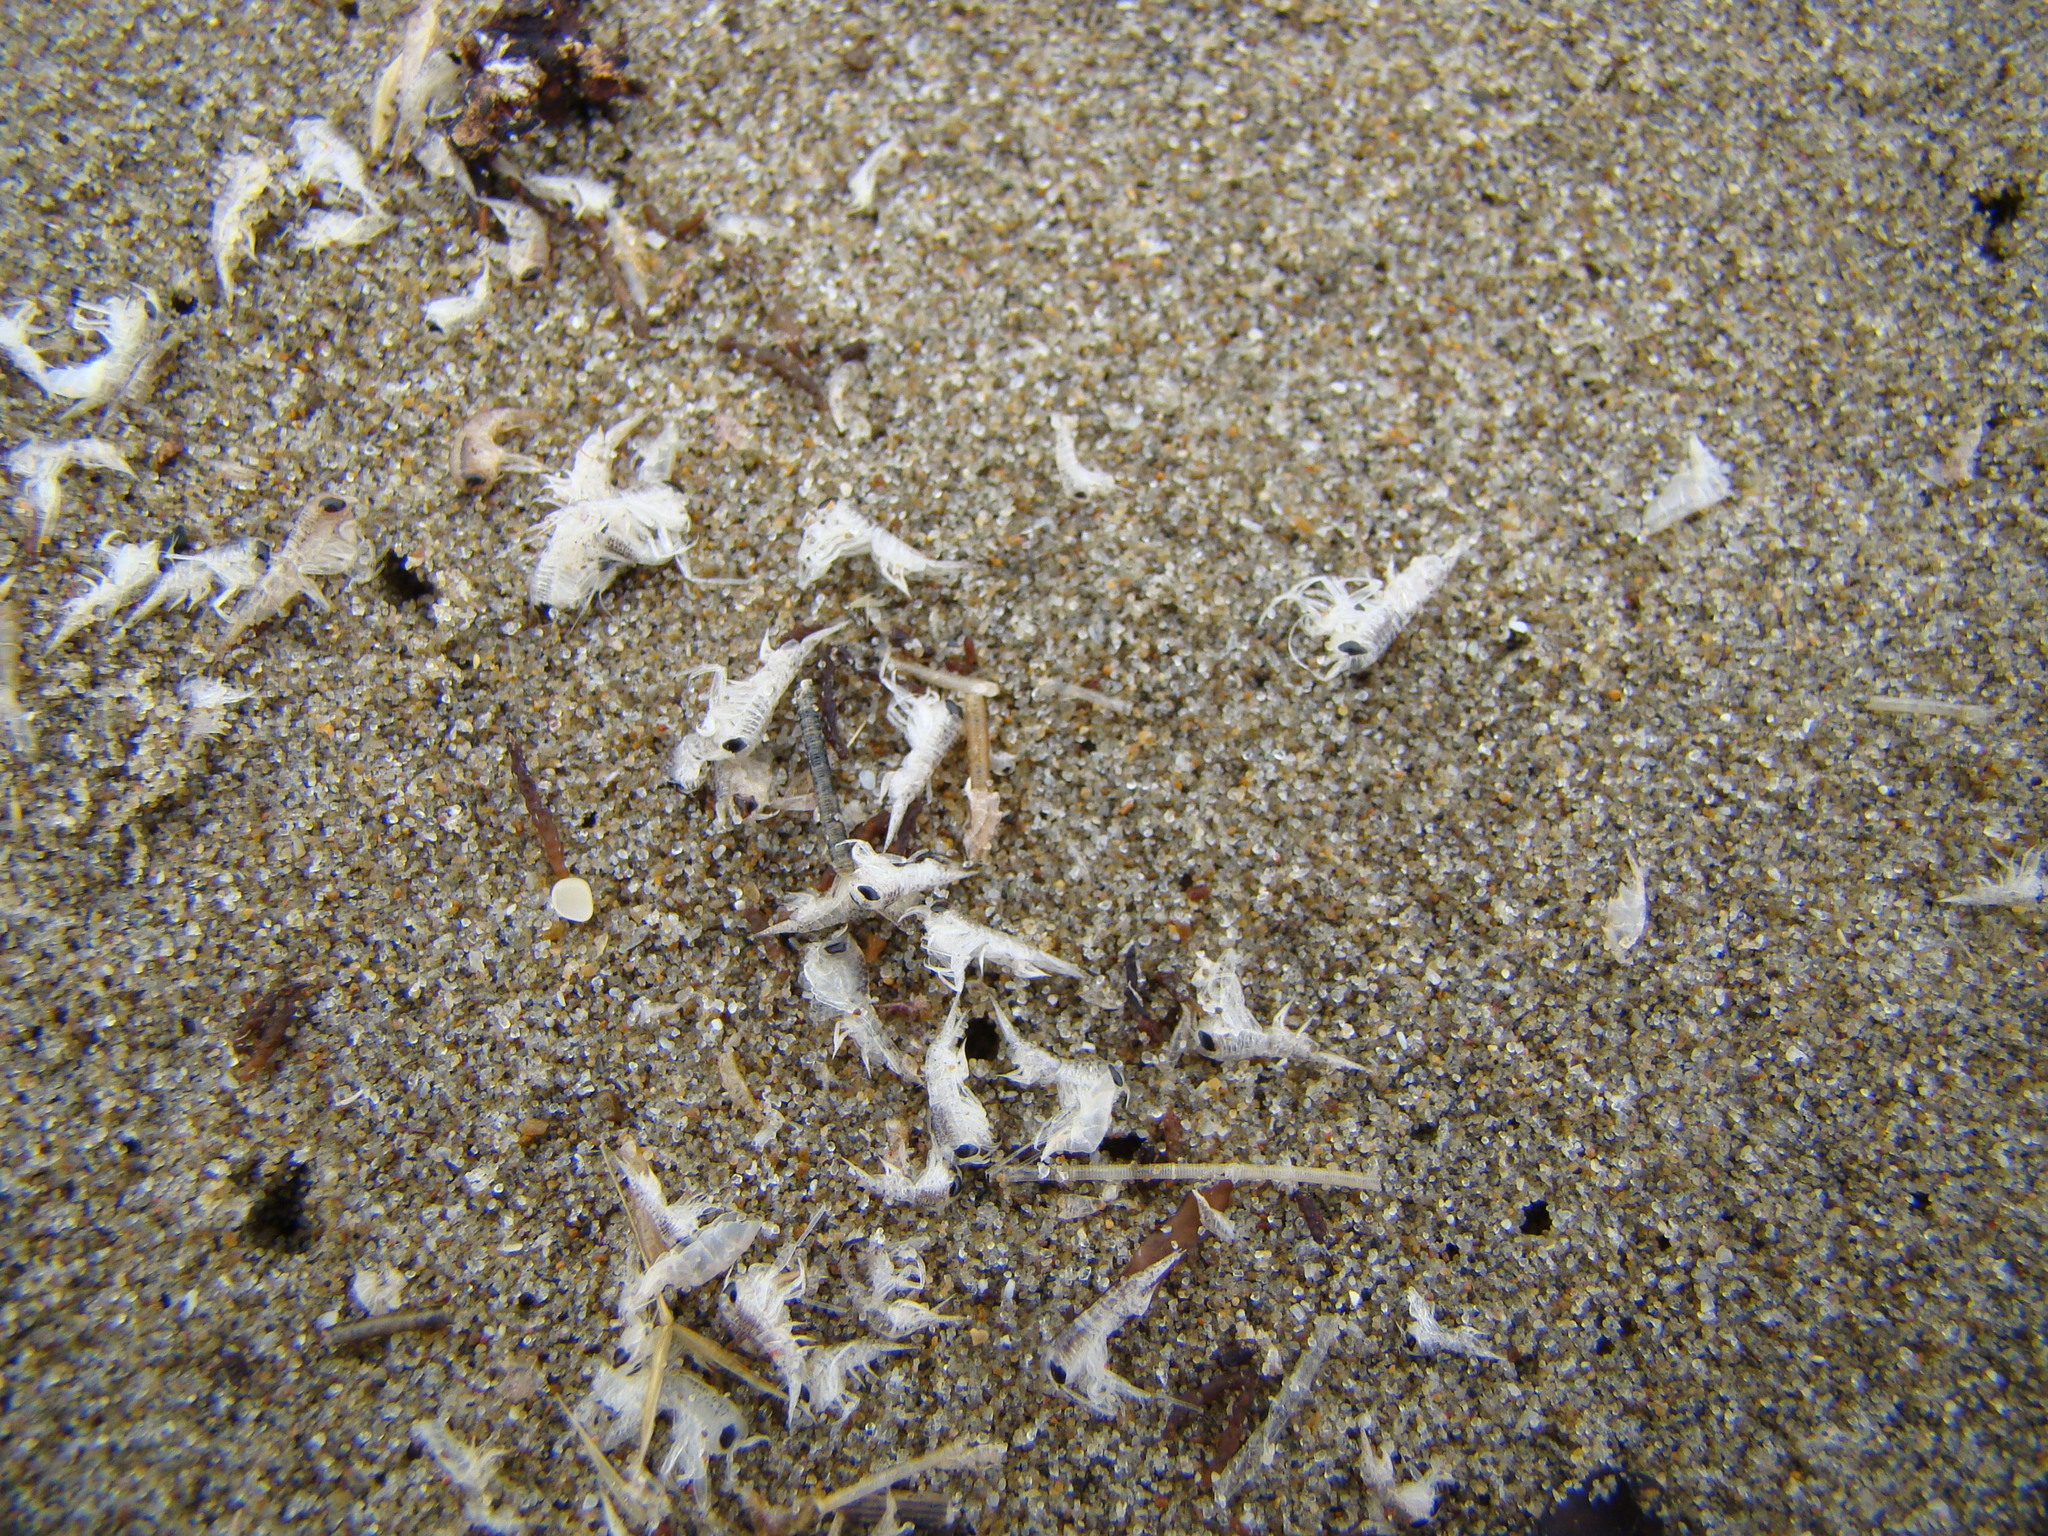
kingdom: Animalia
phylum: Arthropoda
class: Malacostraca
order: Amphipoda
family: Hyperiidae
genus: Themisto
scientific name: Themisto australis
